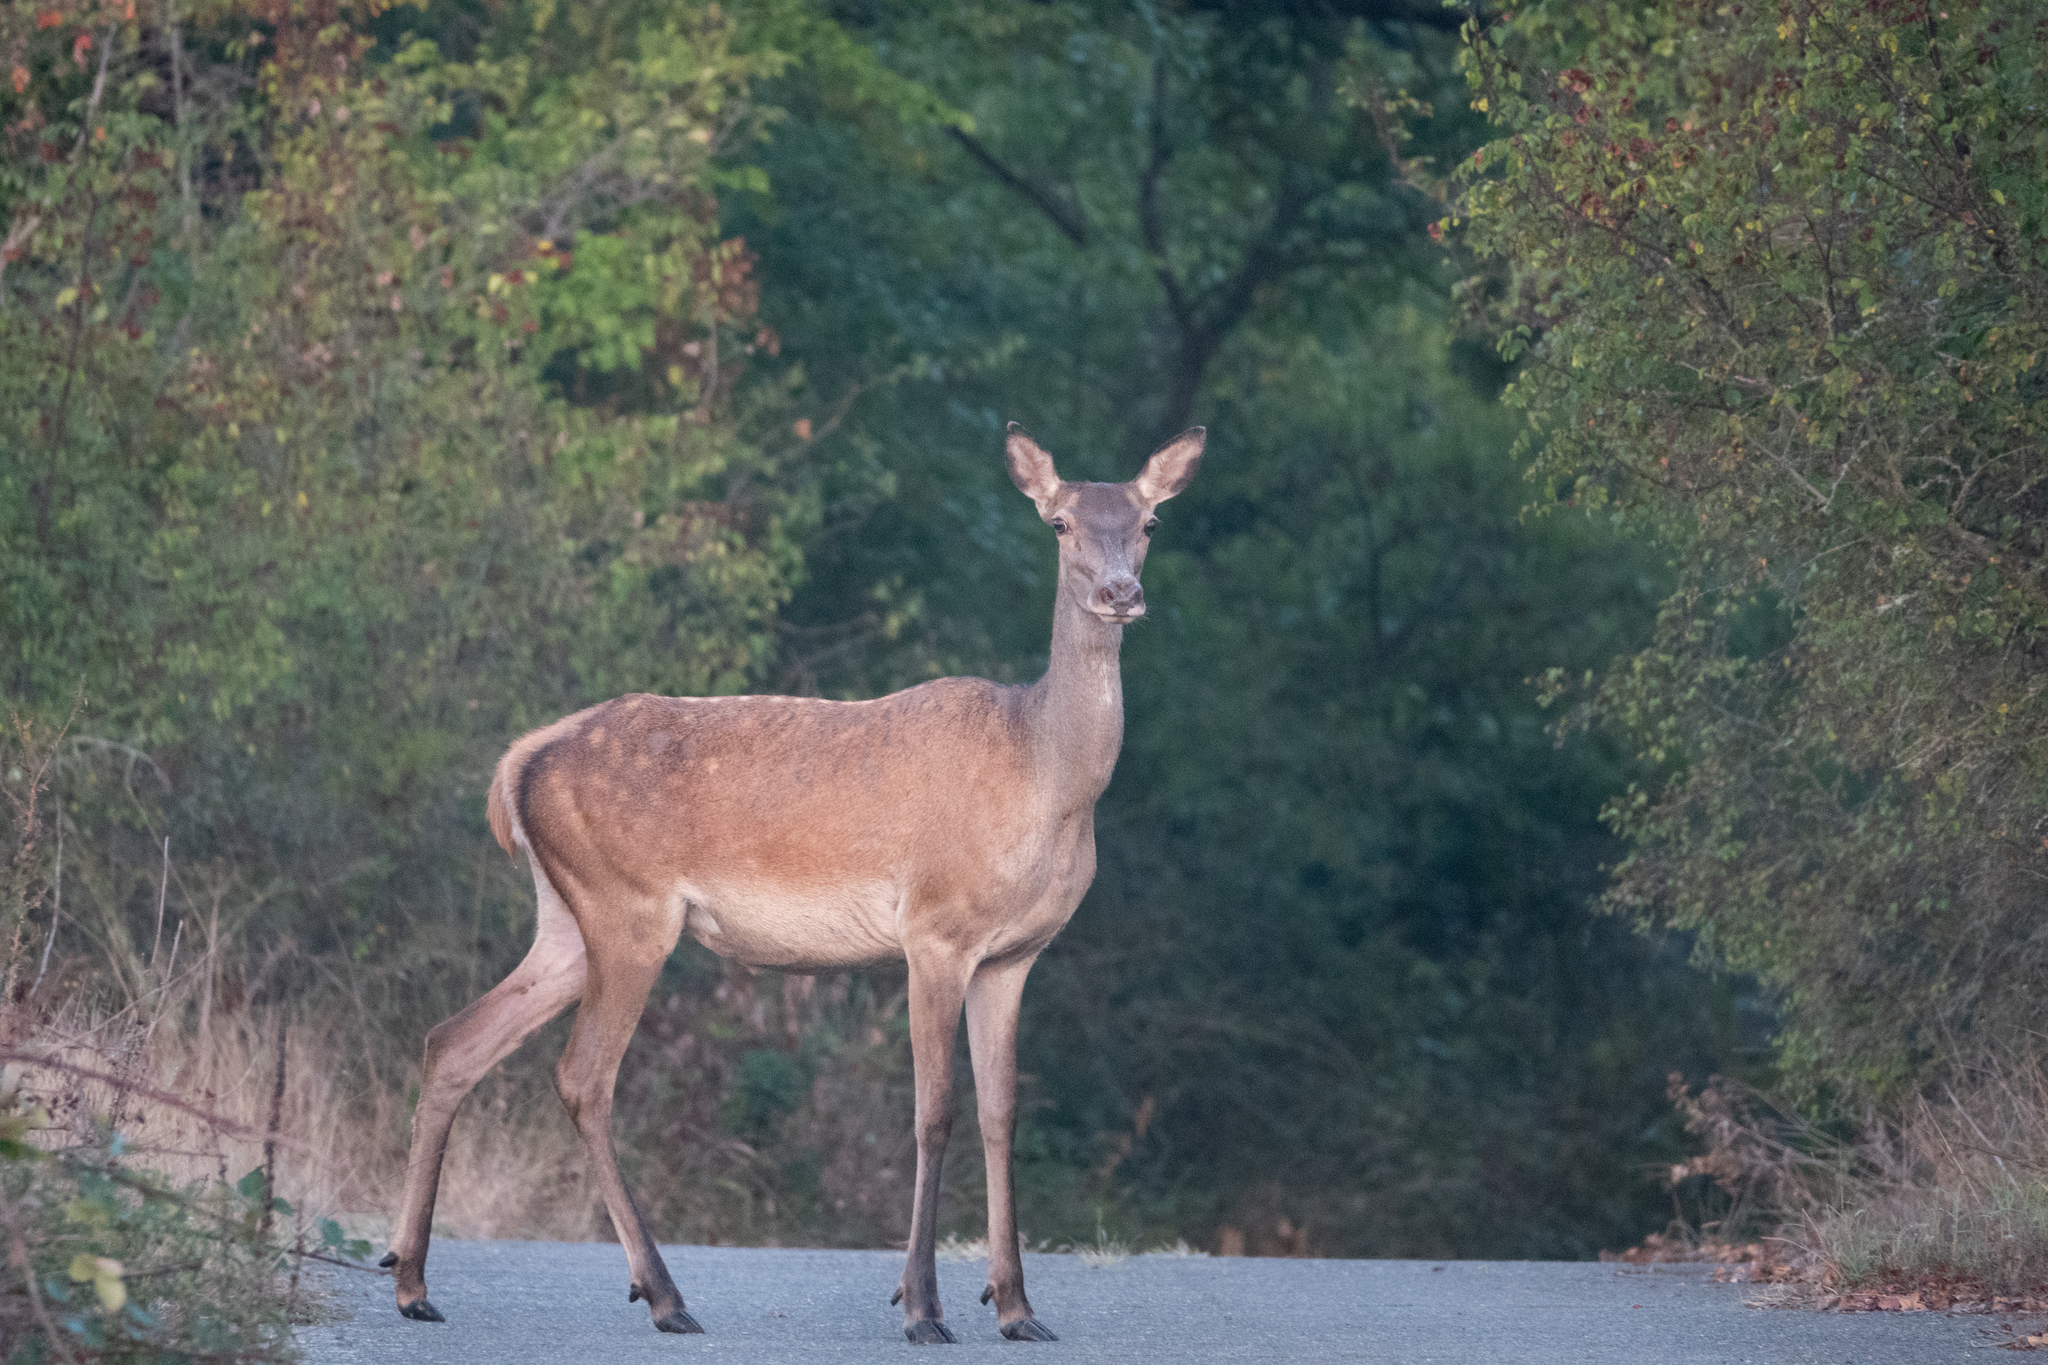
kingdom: Animalia
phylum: Chordata
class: Mammalia
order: Artiodactyla
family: Cervidae
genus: Cervus
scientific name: Cervus elaphus
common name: Red deer
